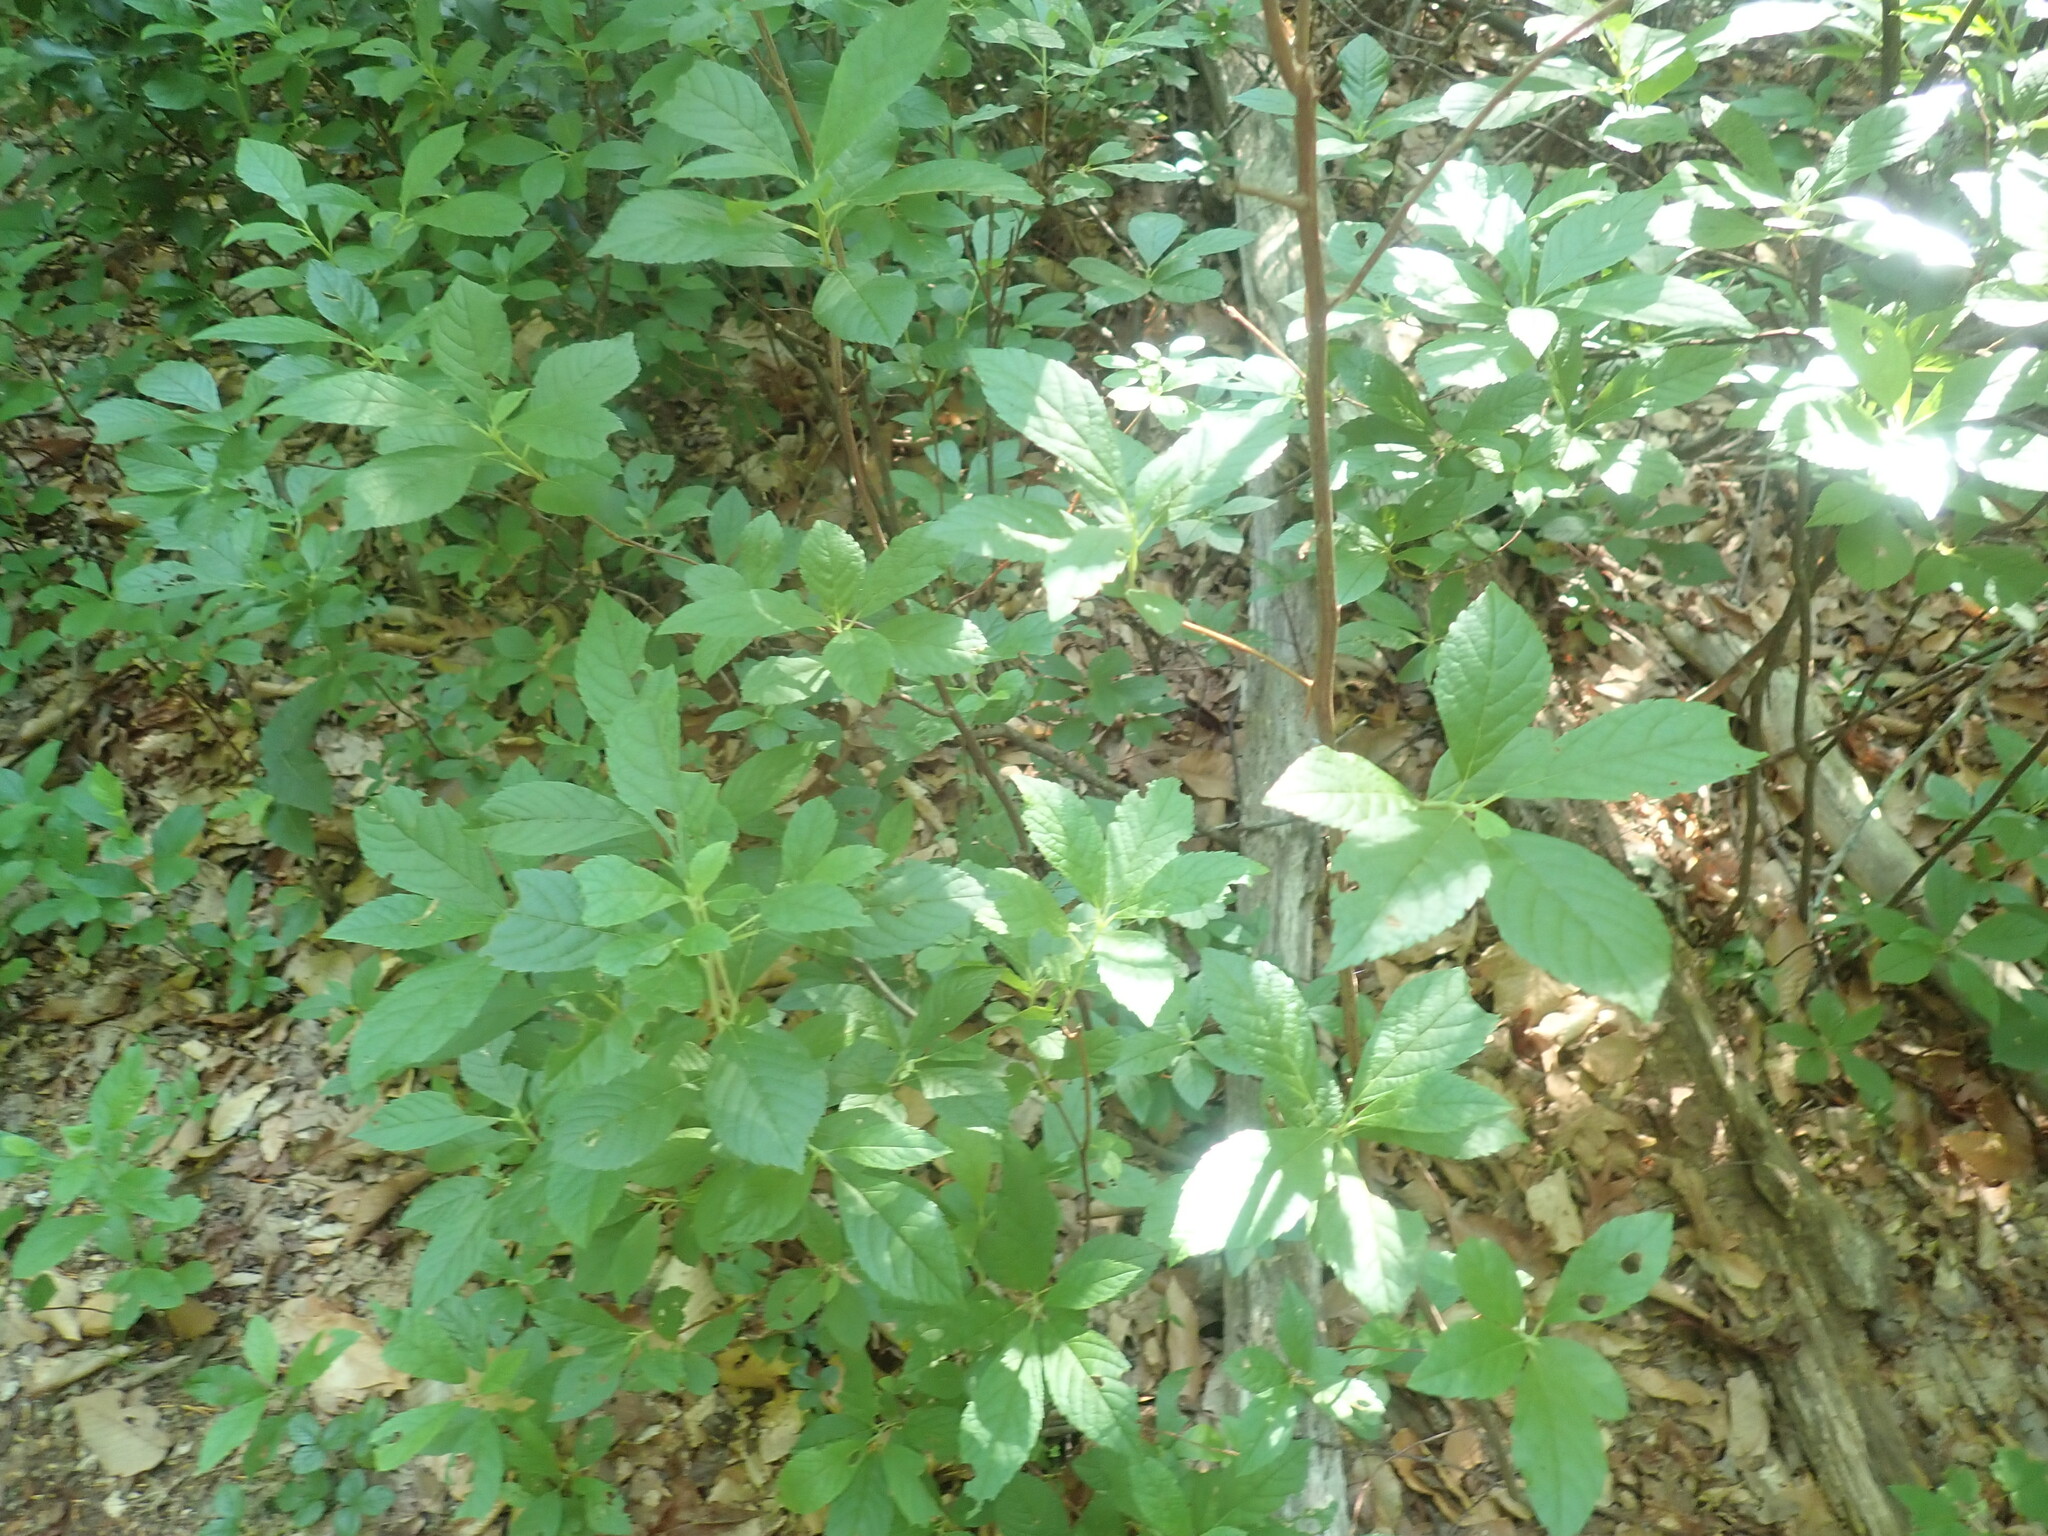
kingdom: Plantae
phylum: Tracheophyta
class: Magnoliopsida
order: Ericales
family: Clethraceae
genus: Clethra
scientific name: Clethra alnifolia
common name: Sweet pepperbush
